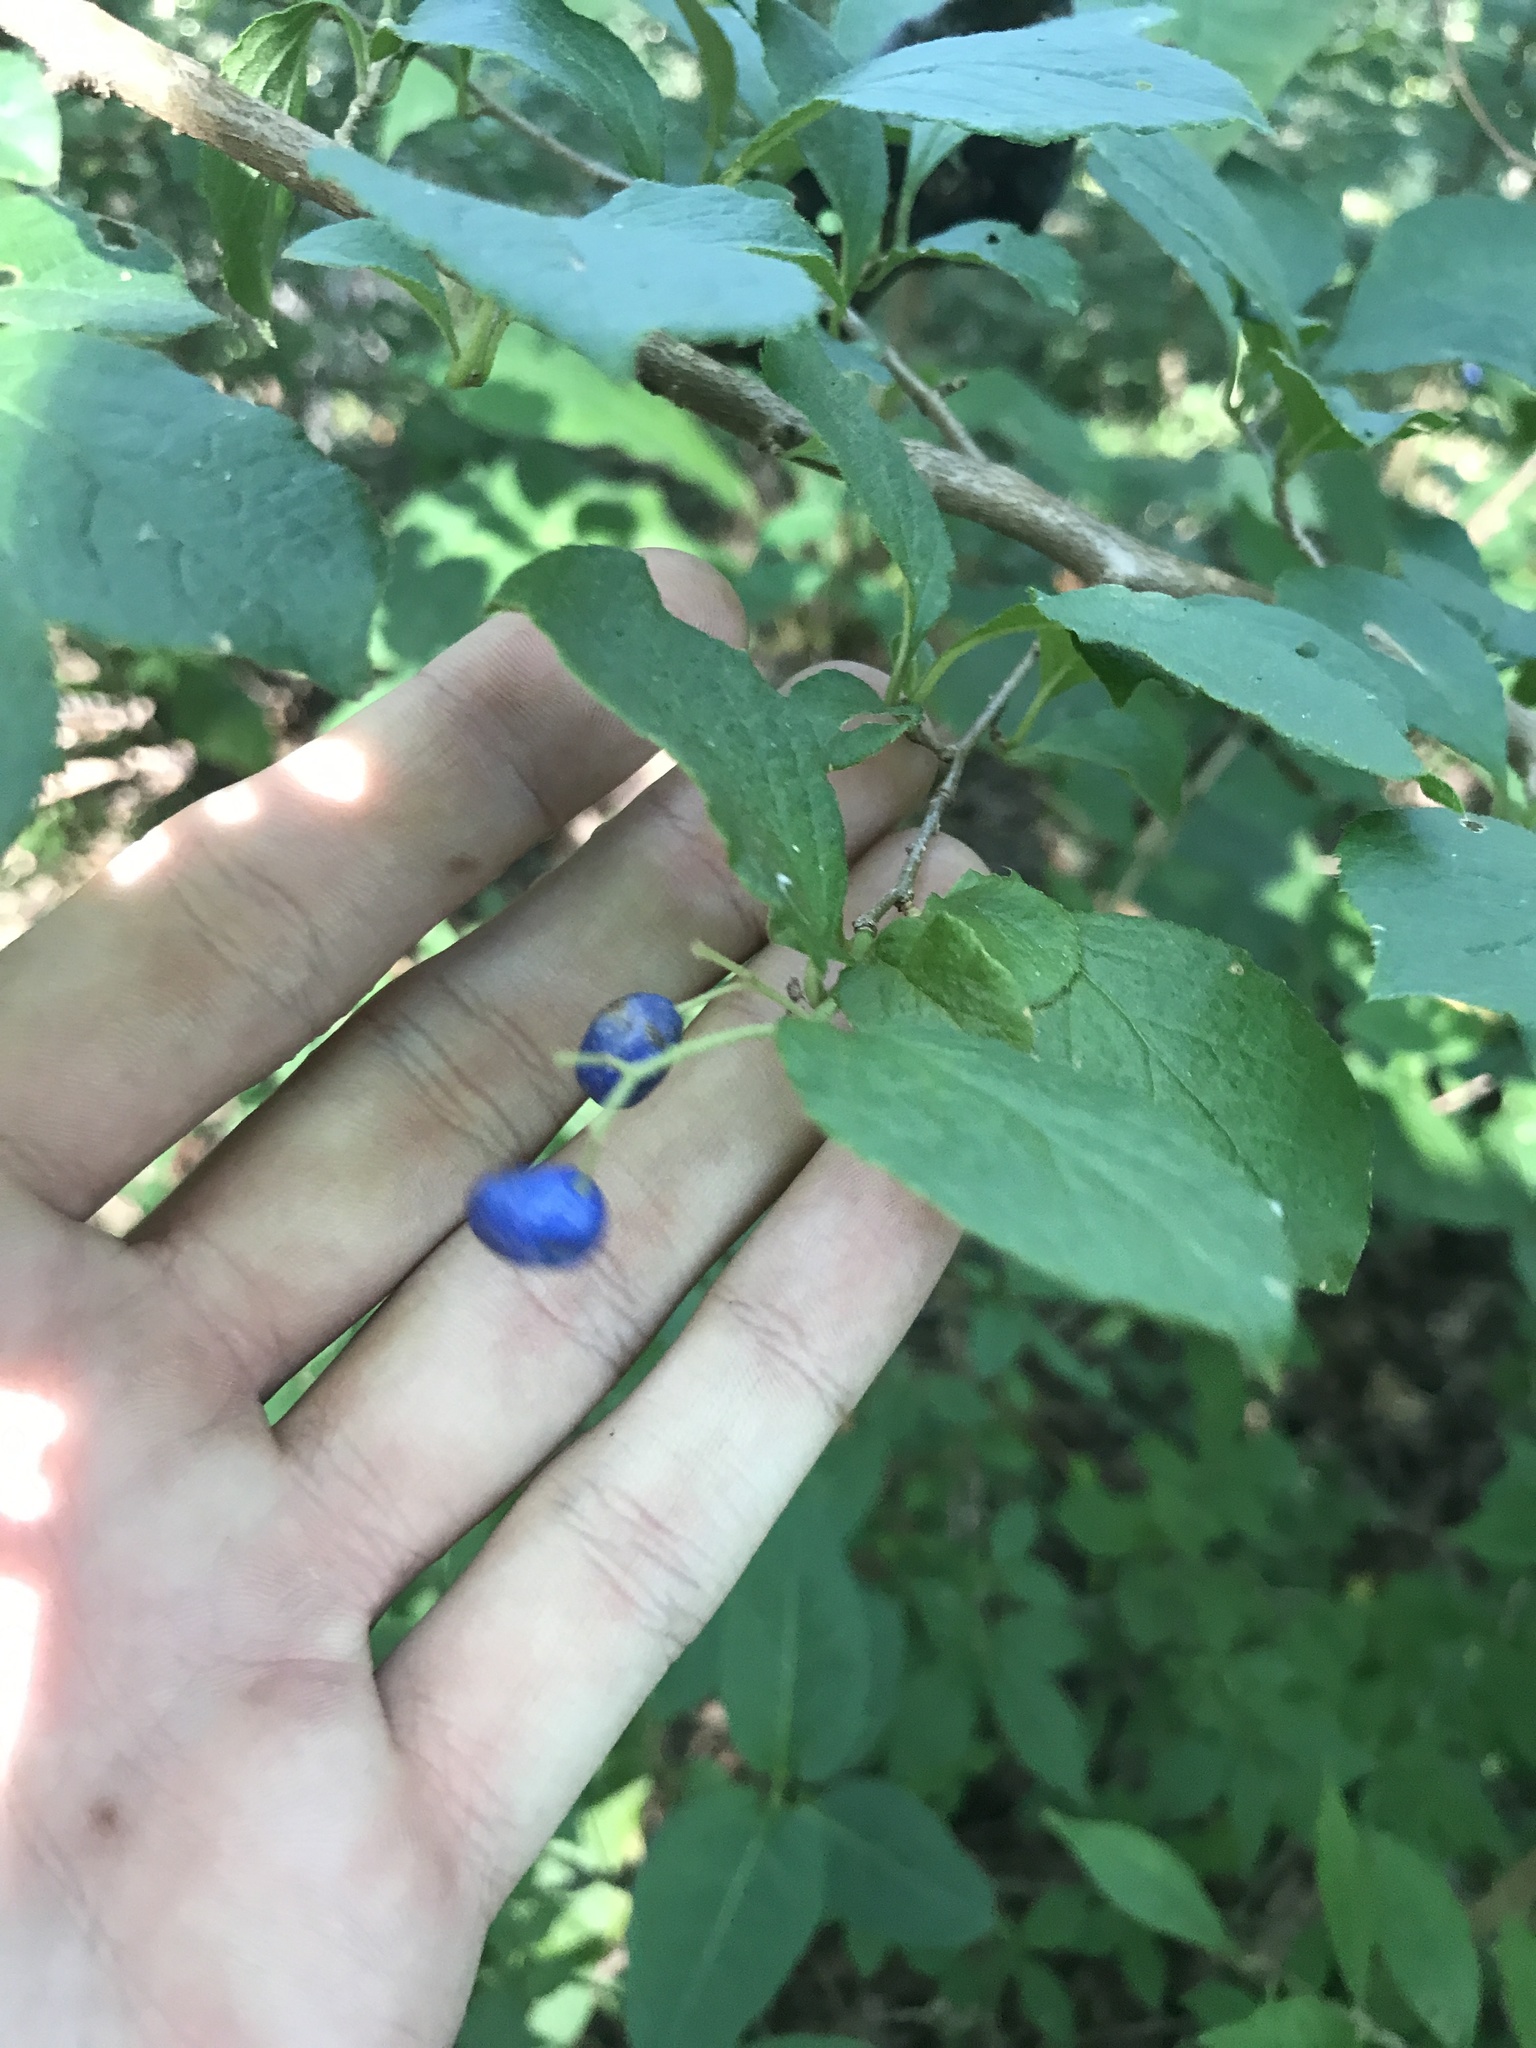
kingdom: Plantae
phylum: Tracheophyta
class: Magnoliopsida
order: Ericales
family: Symplocaceae
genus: Symplocos
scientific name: Symplocos paniculata
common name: Sapphire-berry
